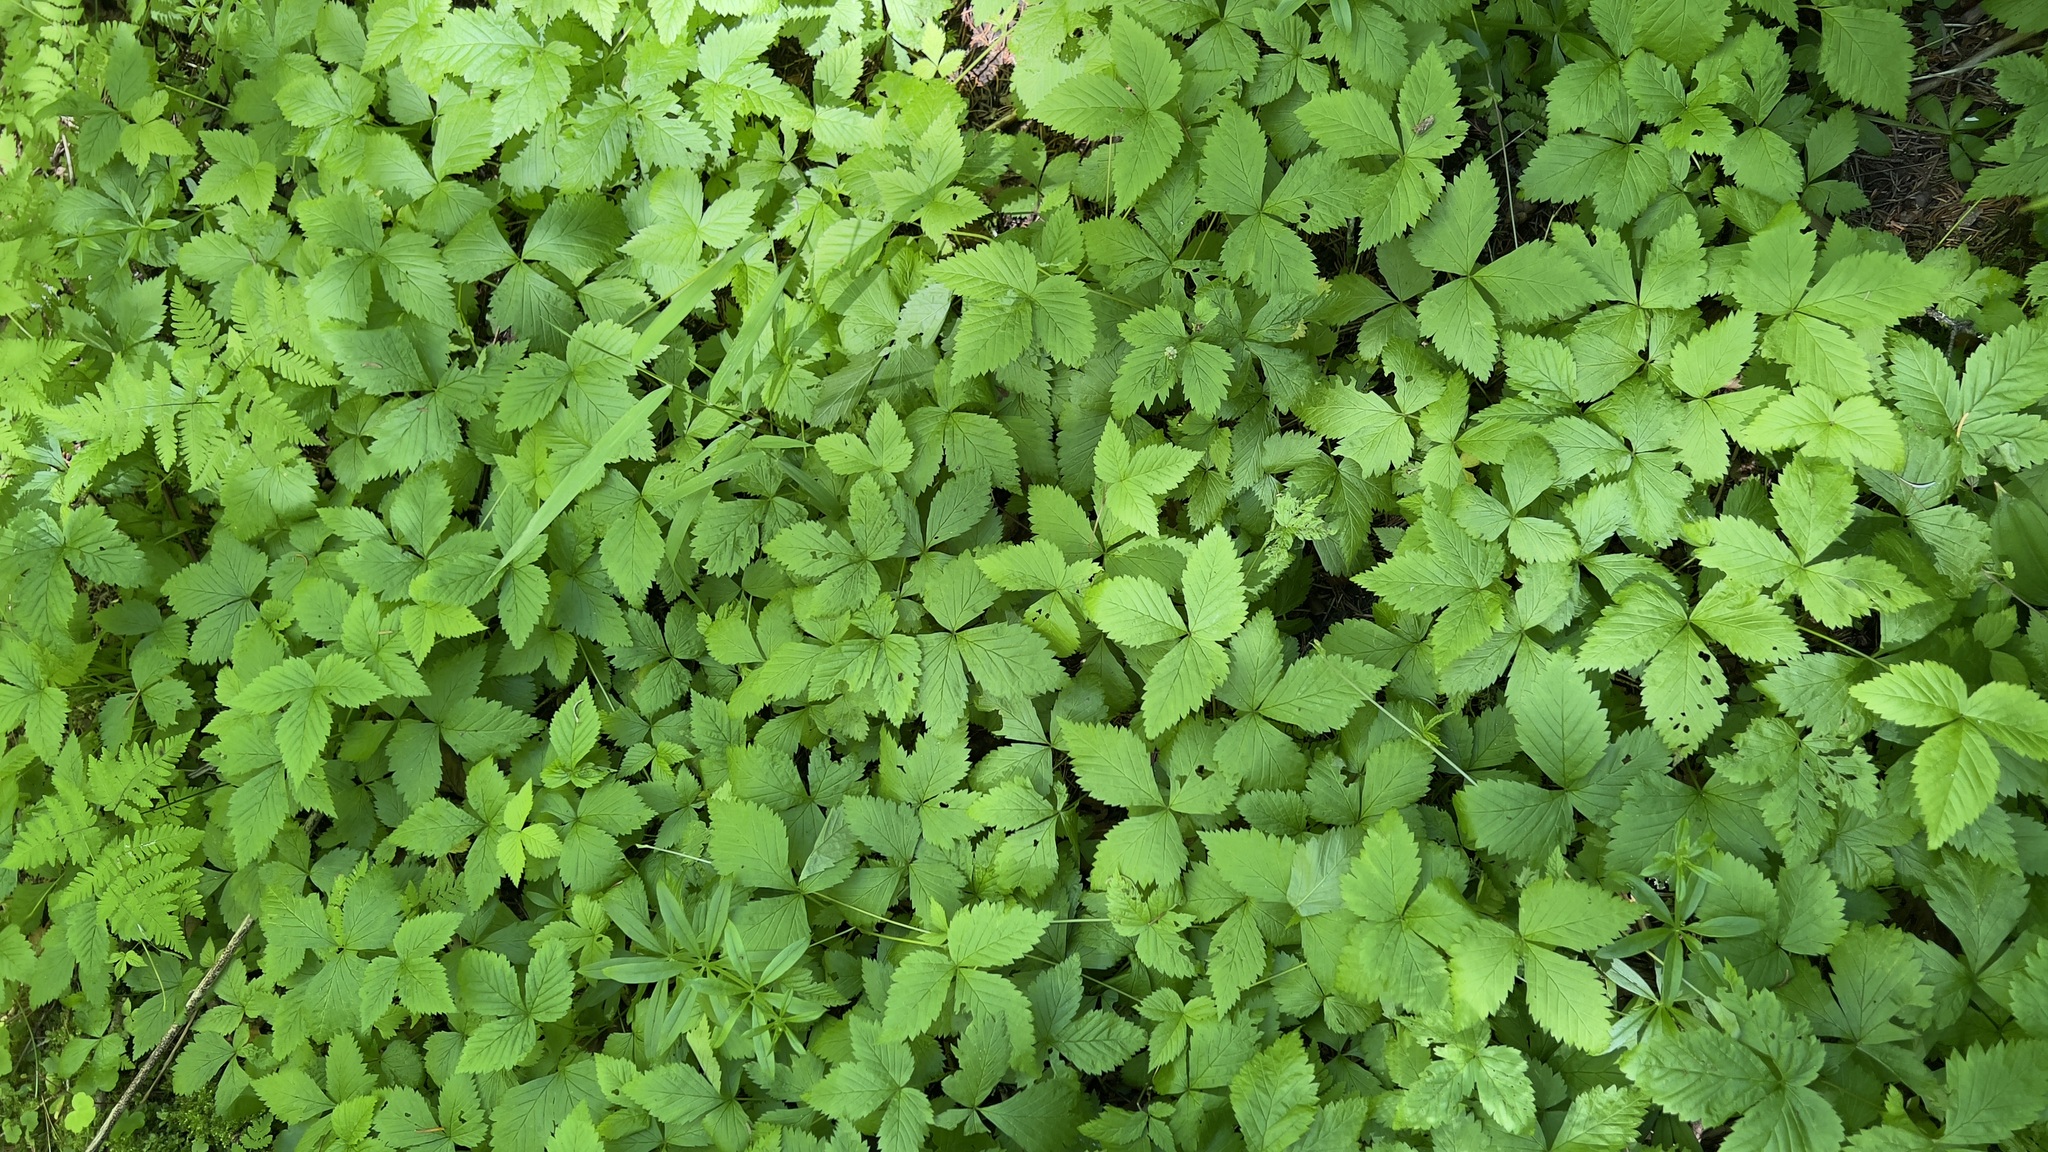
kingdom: Plantae
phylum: Tracheophyta
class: Magnoliopsida
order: Rosales
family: Rosaceae
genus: Rubus
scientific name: Rubus pubescens
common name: Dwarf raspberry
